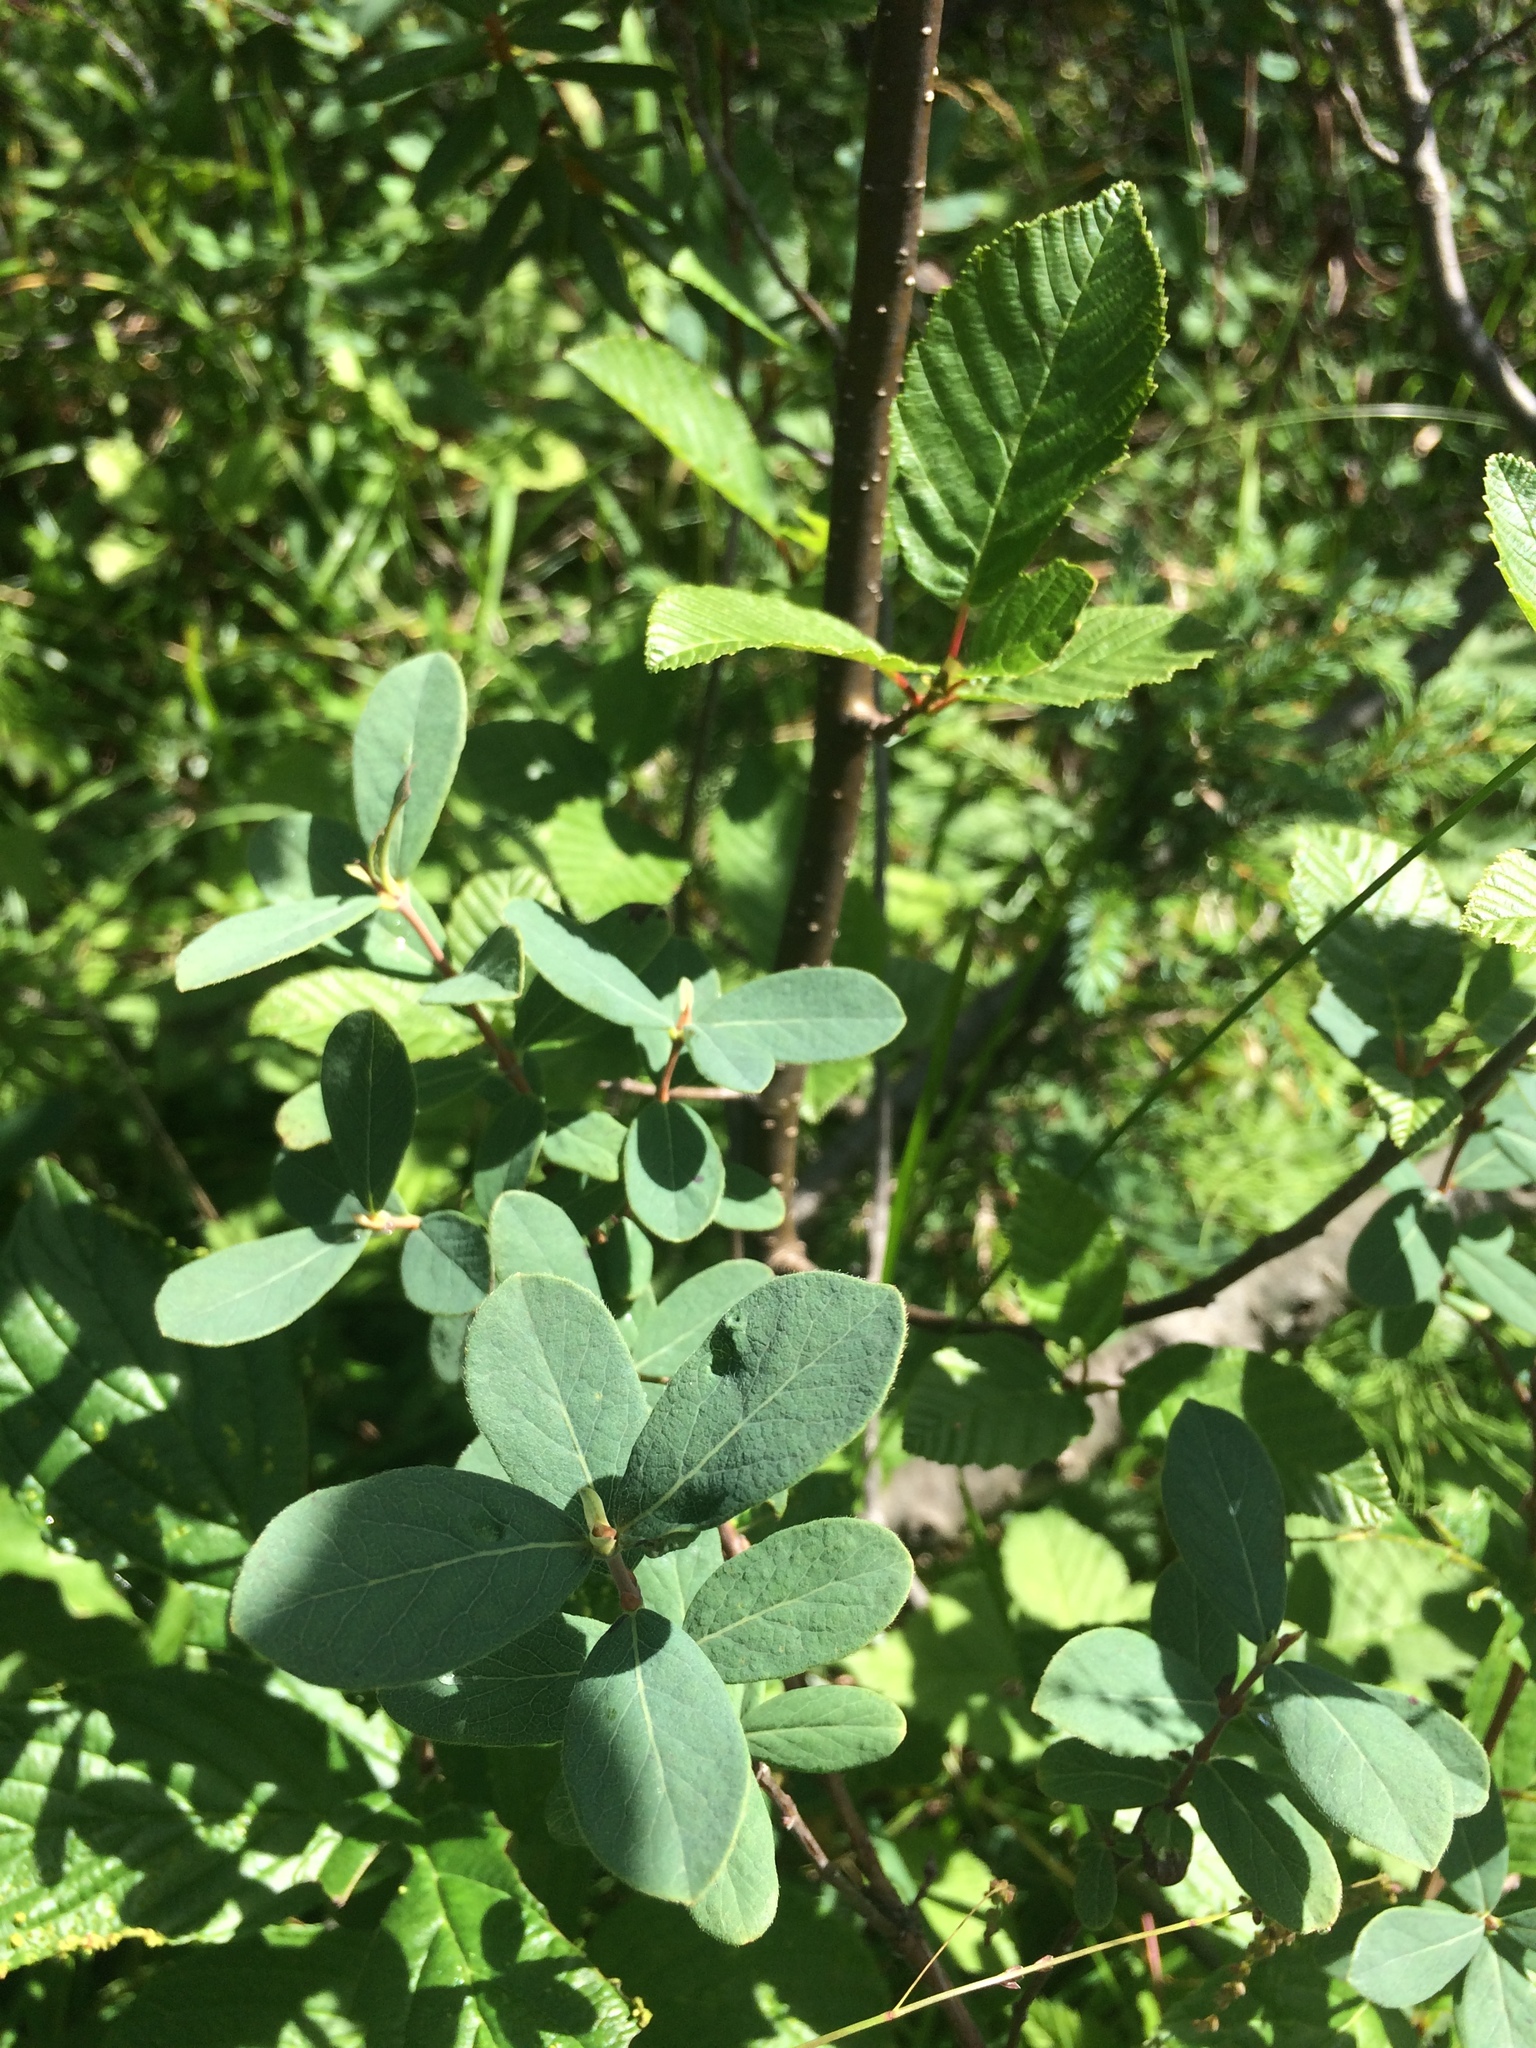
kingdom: Plantae
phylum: Tracheophyta
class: Magnoliopsida
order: Dipsacales
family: Caprifoliaceae
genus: Lonicera
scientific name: Lonicera villosa
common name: Mountain fly-honeysuckle
